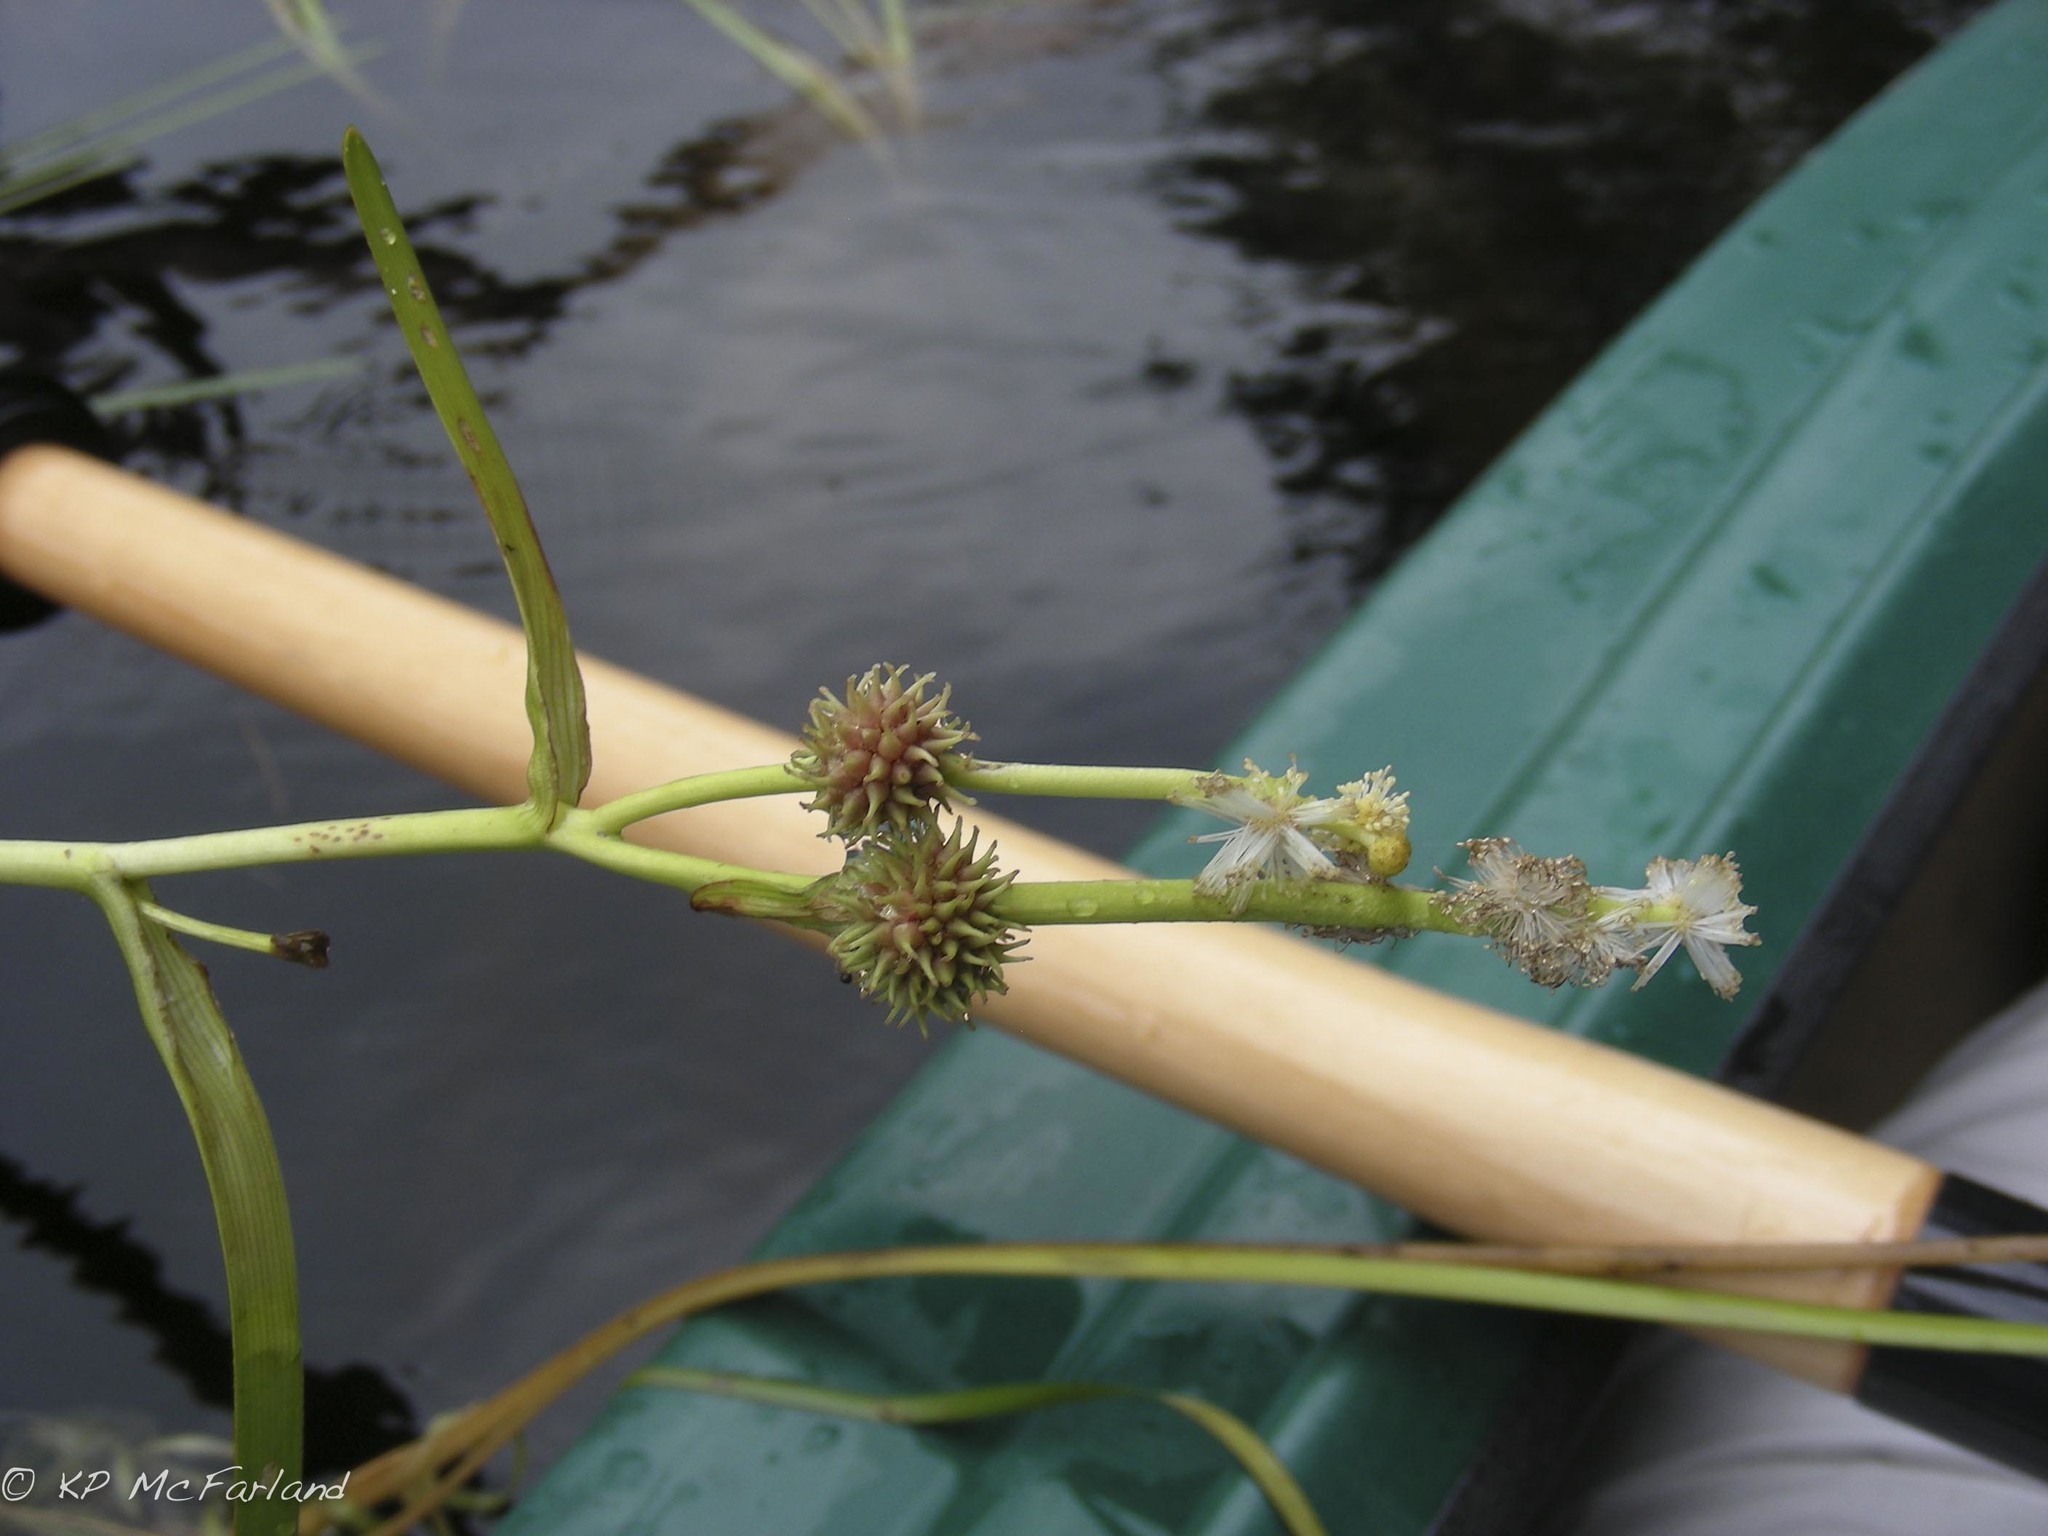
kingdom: Plantae
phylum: Tracheophyta
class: Liliopsida
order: Poales
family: Typhaceae
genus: Sparganium
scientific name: Sparganium fluctuans
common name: Floating burreed
